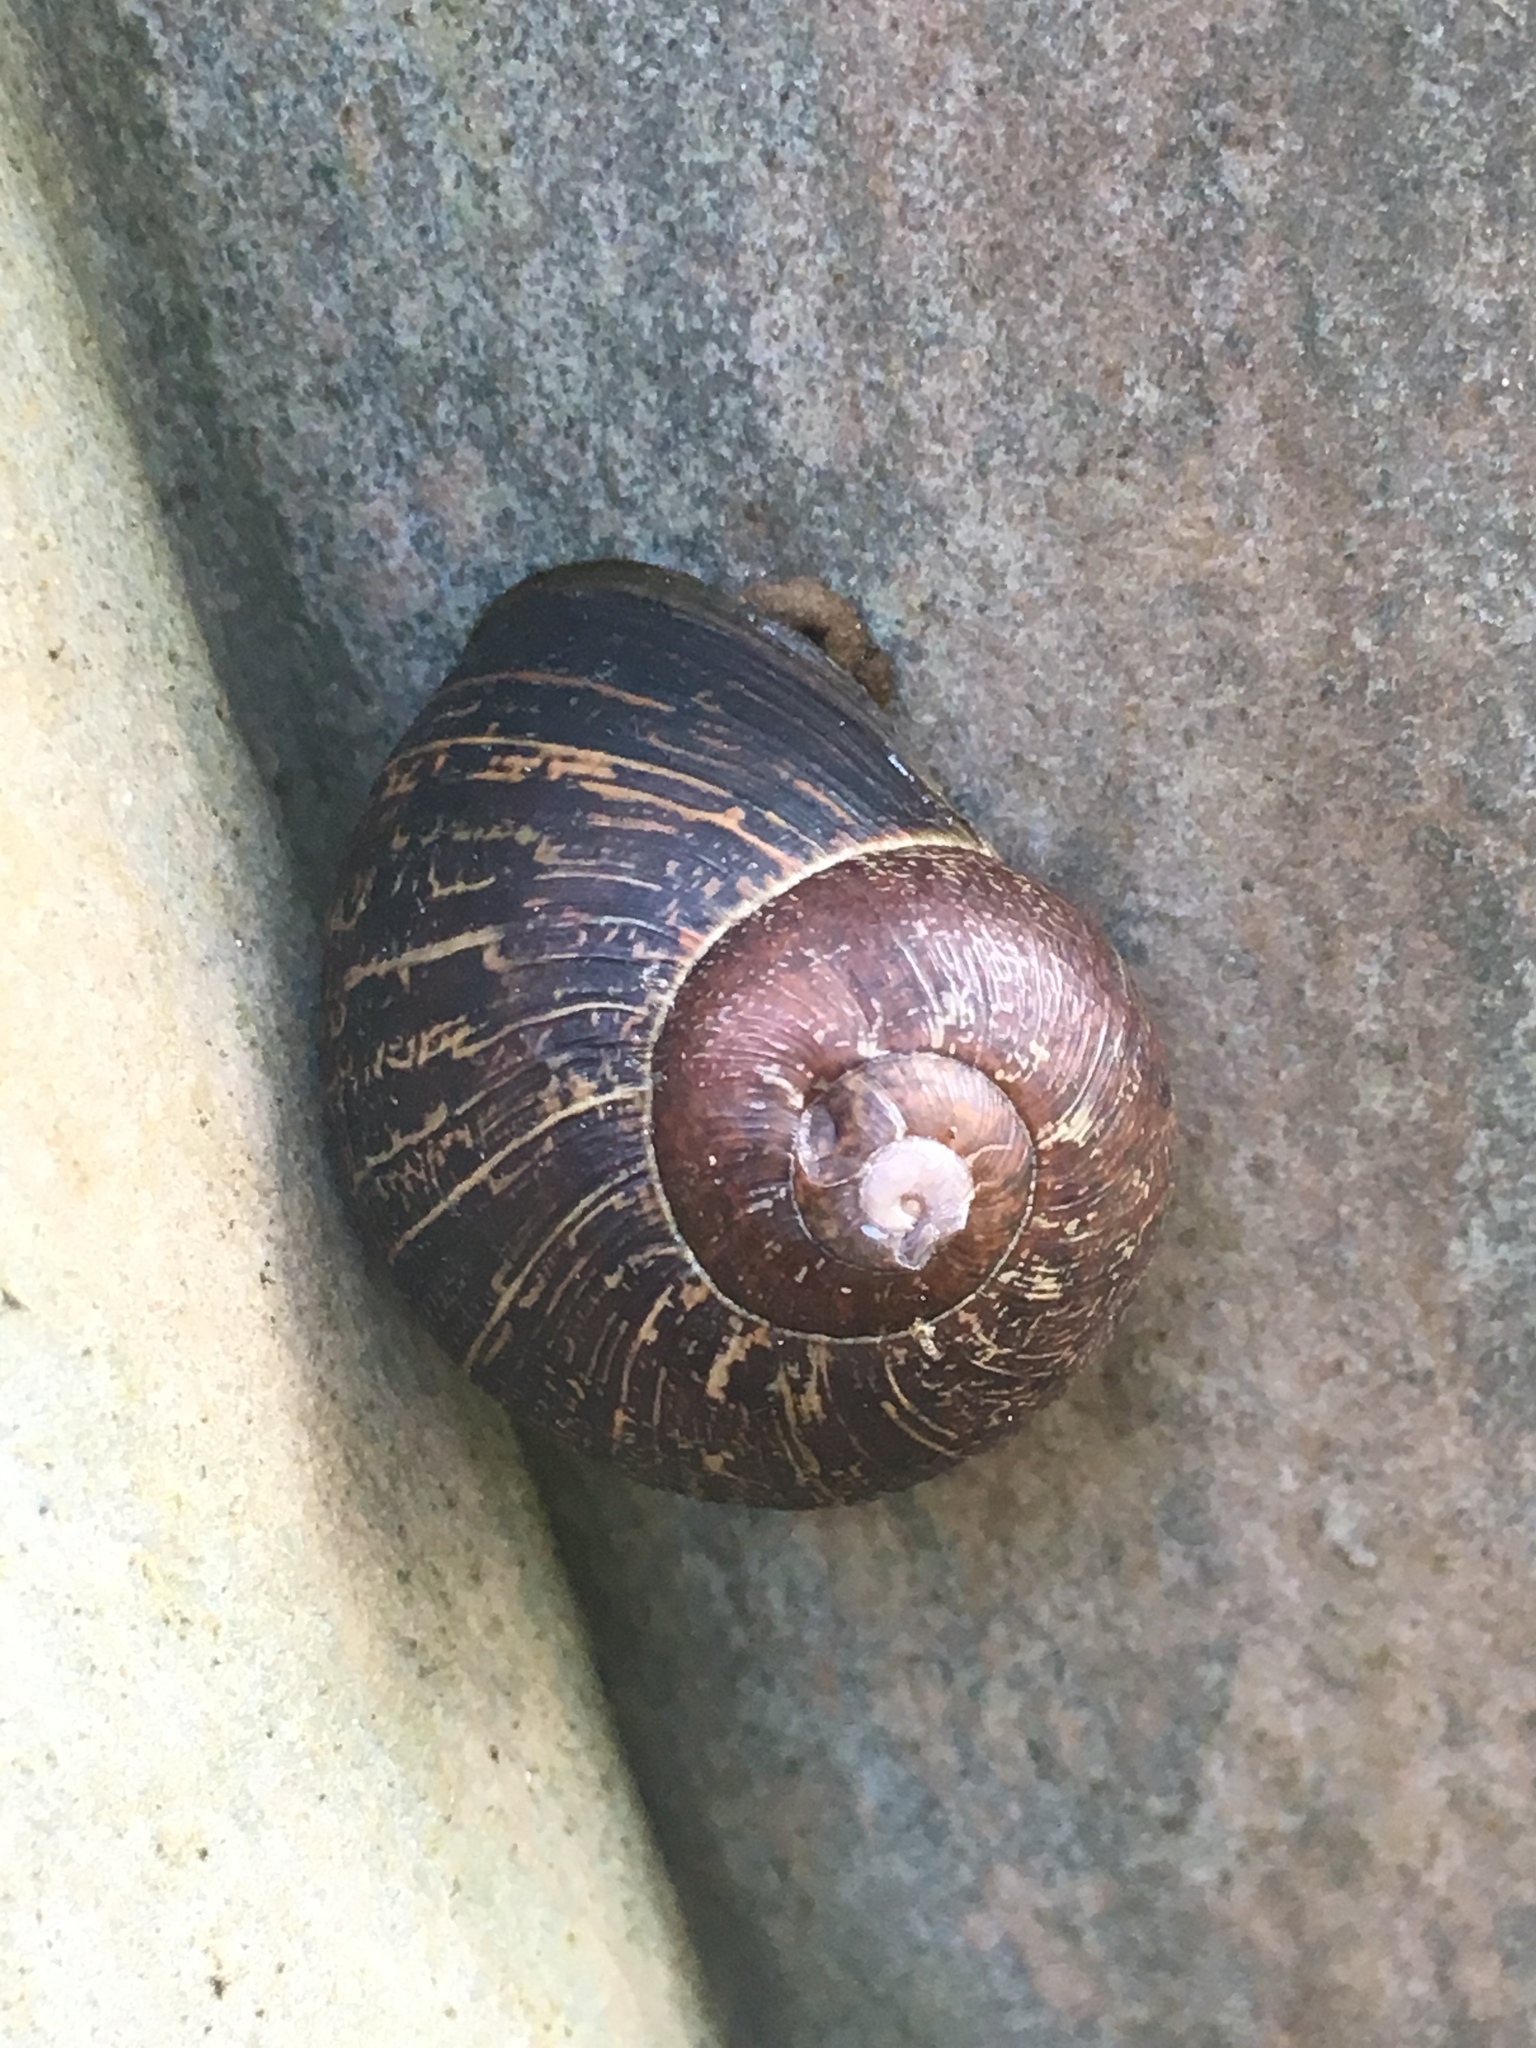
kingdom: Animalia
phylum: Mollusca
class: Gastropoda
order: Stylommatophora
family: Helicidae
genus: Cornu
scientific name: Cornu aspersum
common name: Brown garden snail
